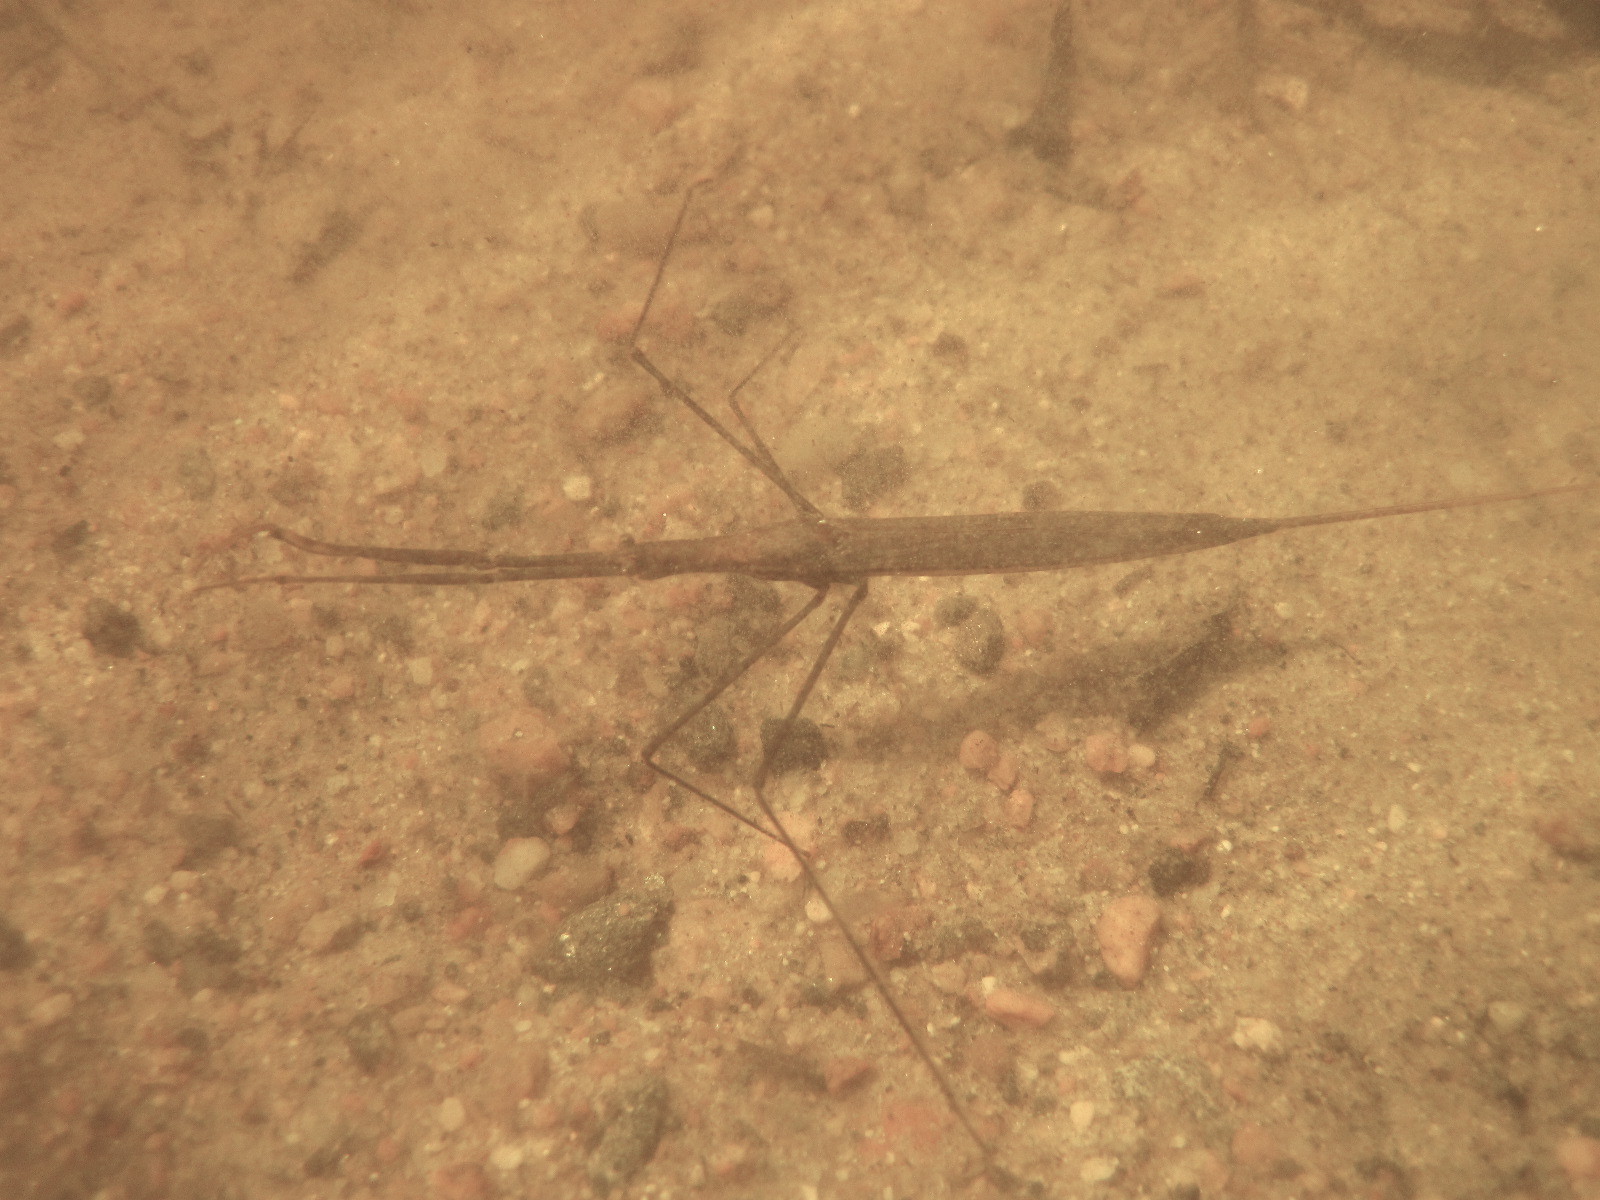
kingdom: Animalia
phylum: Arthropoda
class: Insecta
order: Hemiptera
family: Nepidae
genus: Ranatra
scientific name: Ranatra linearis
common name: Water stick insect
